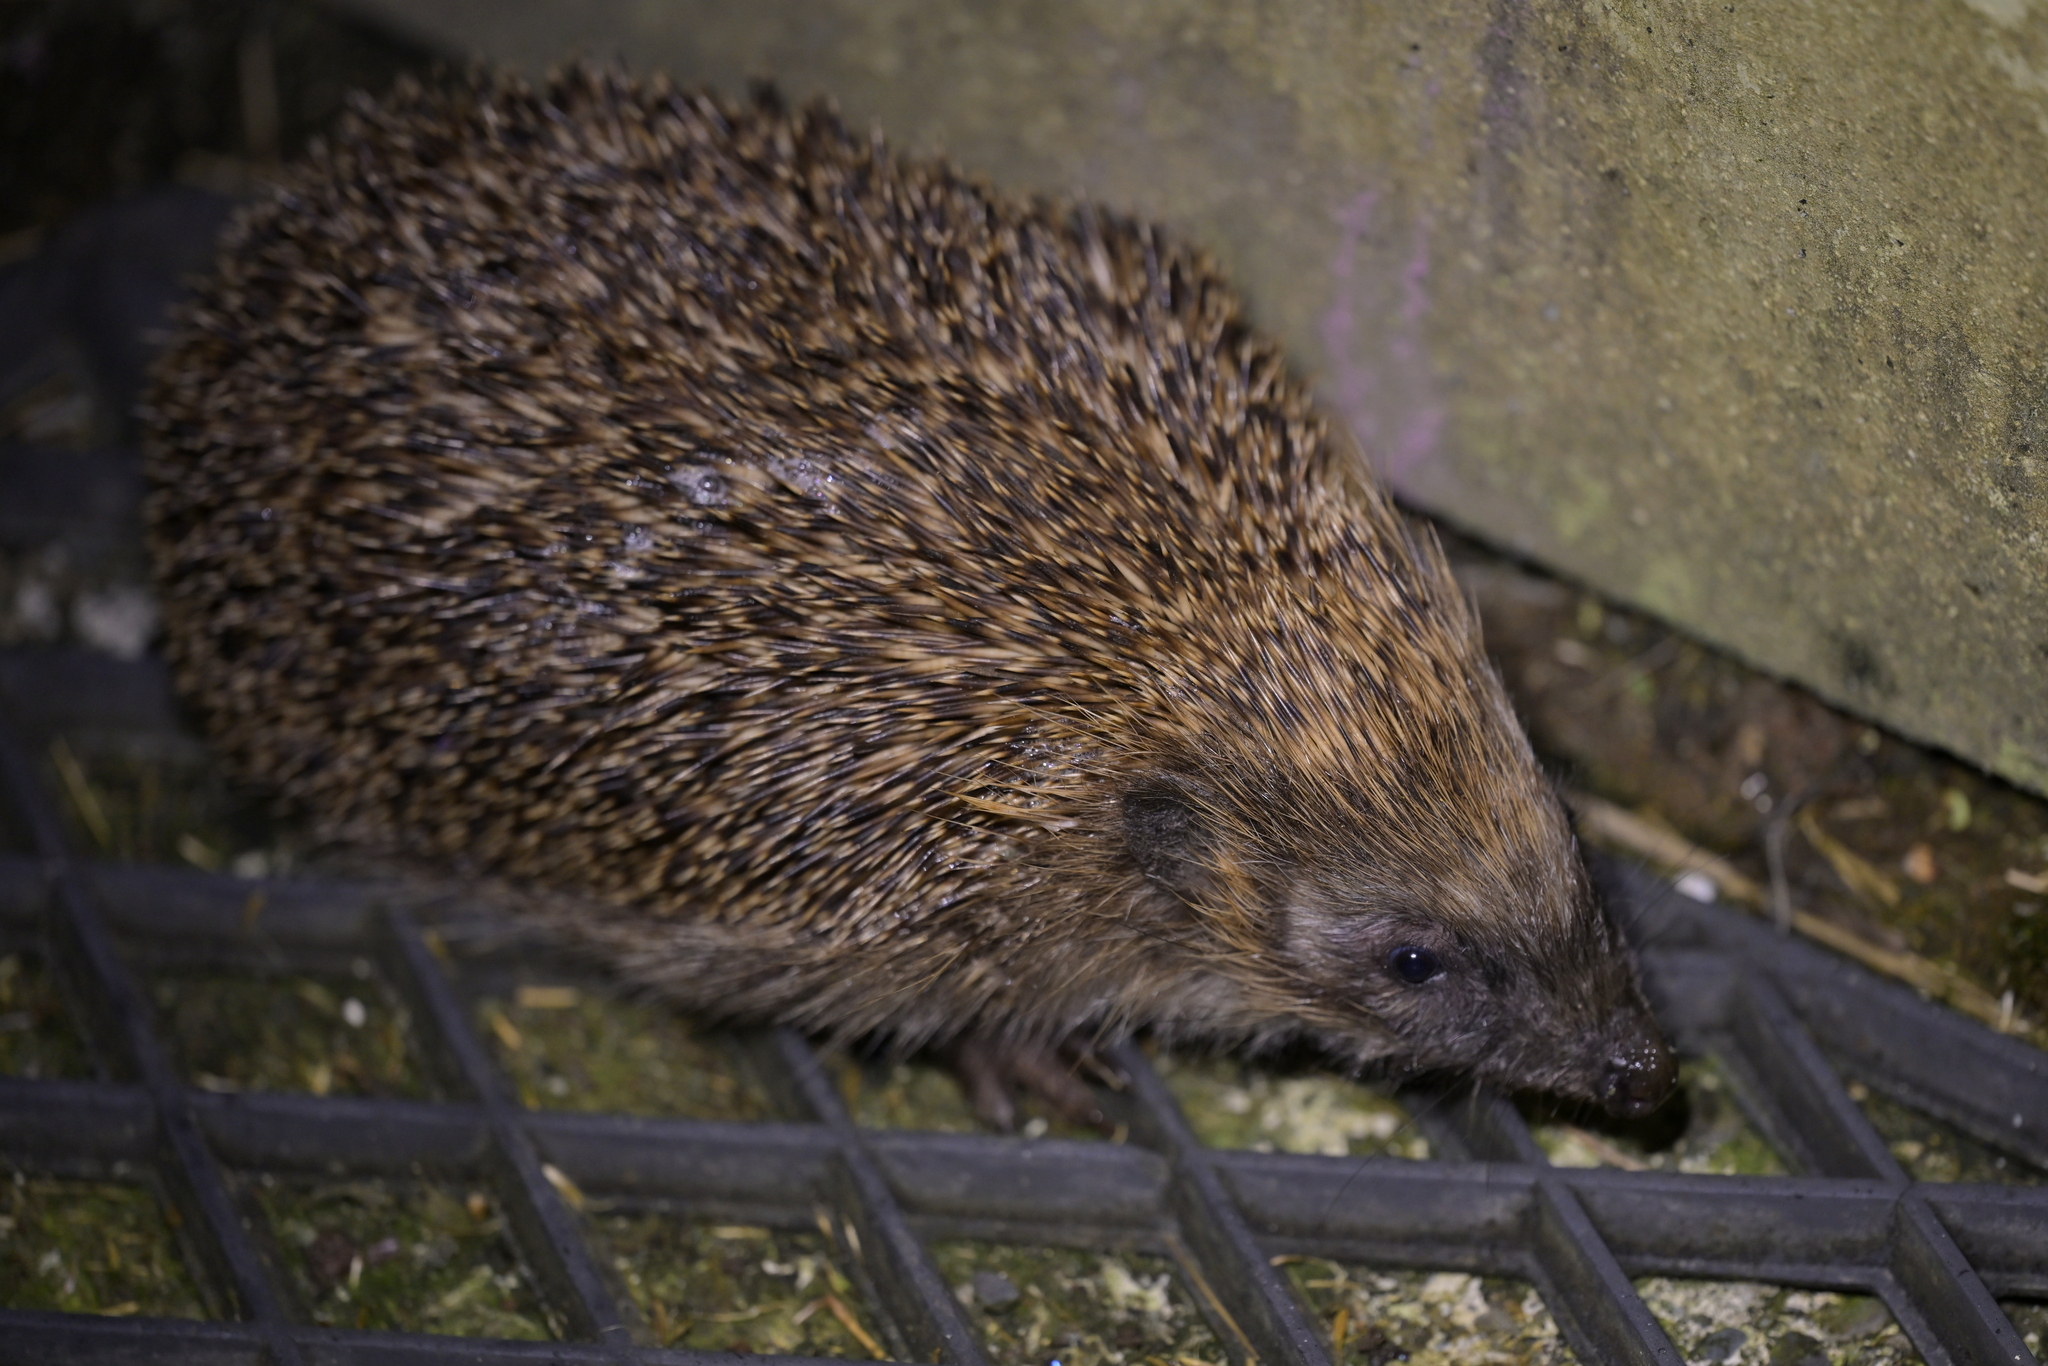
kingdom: Animalia
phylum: Chordata
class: Mammalia
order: Erinaceomorpha
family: Erinaceidae
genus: Erinaceus
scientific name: Erinaceus europaeus
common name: West european hedgehog
